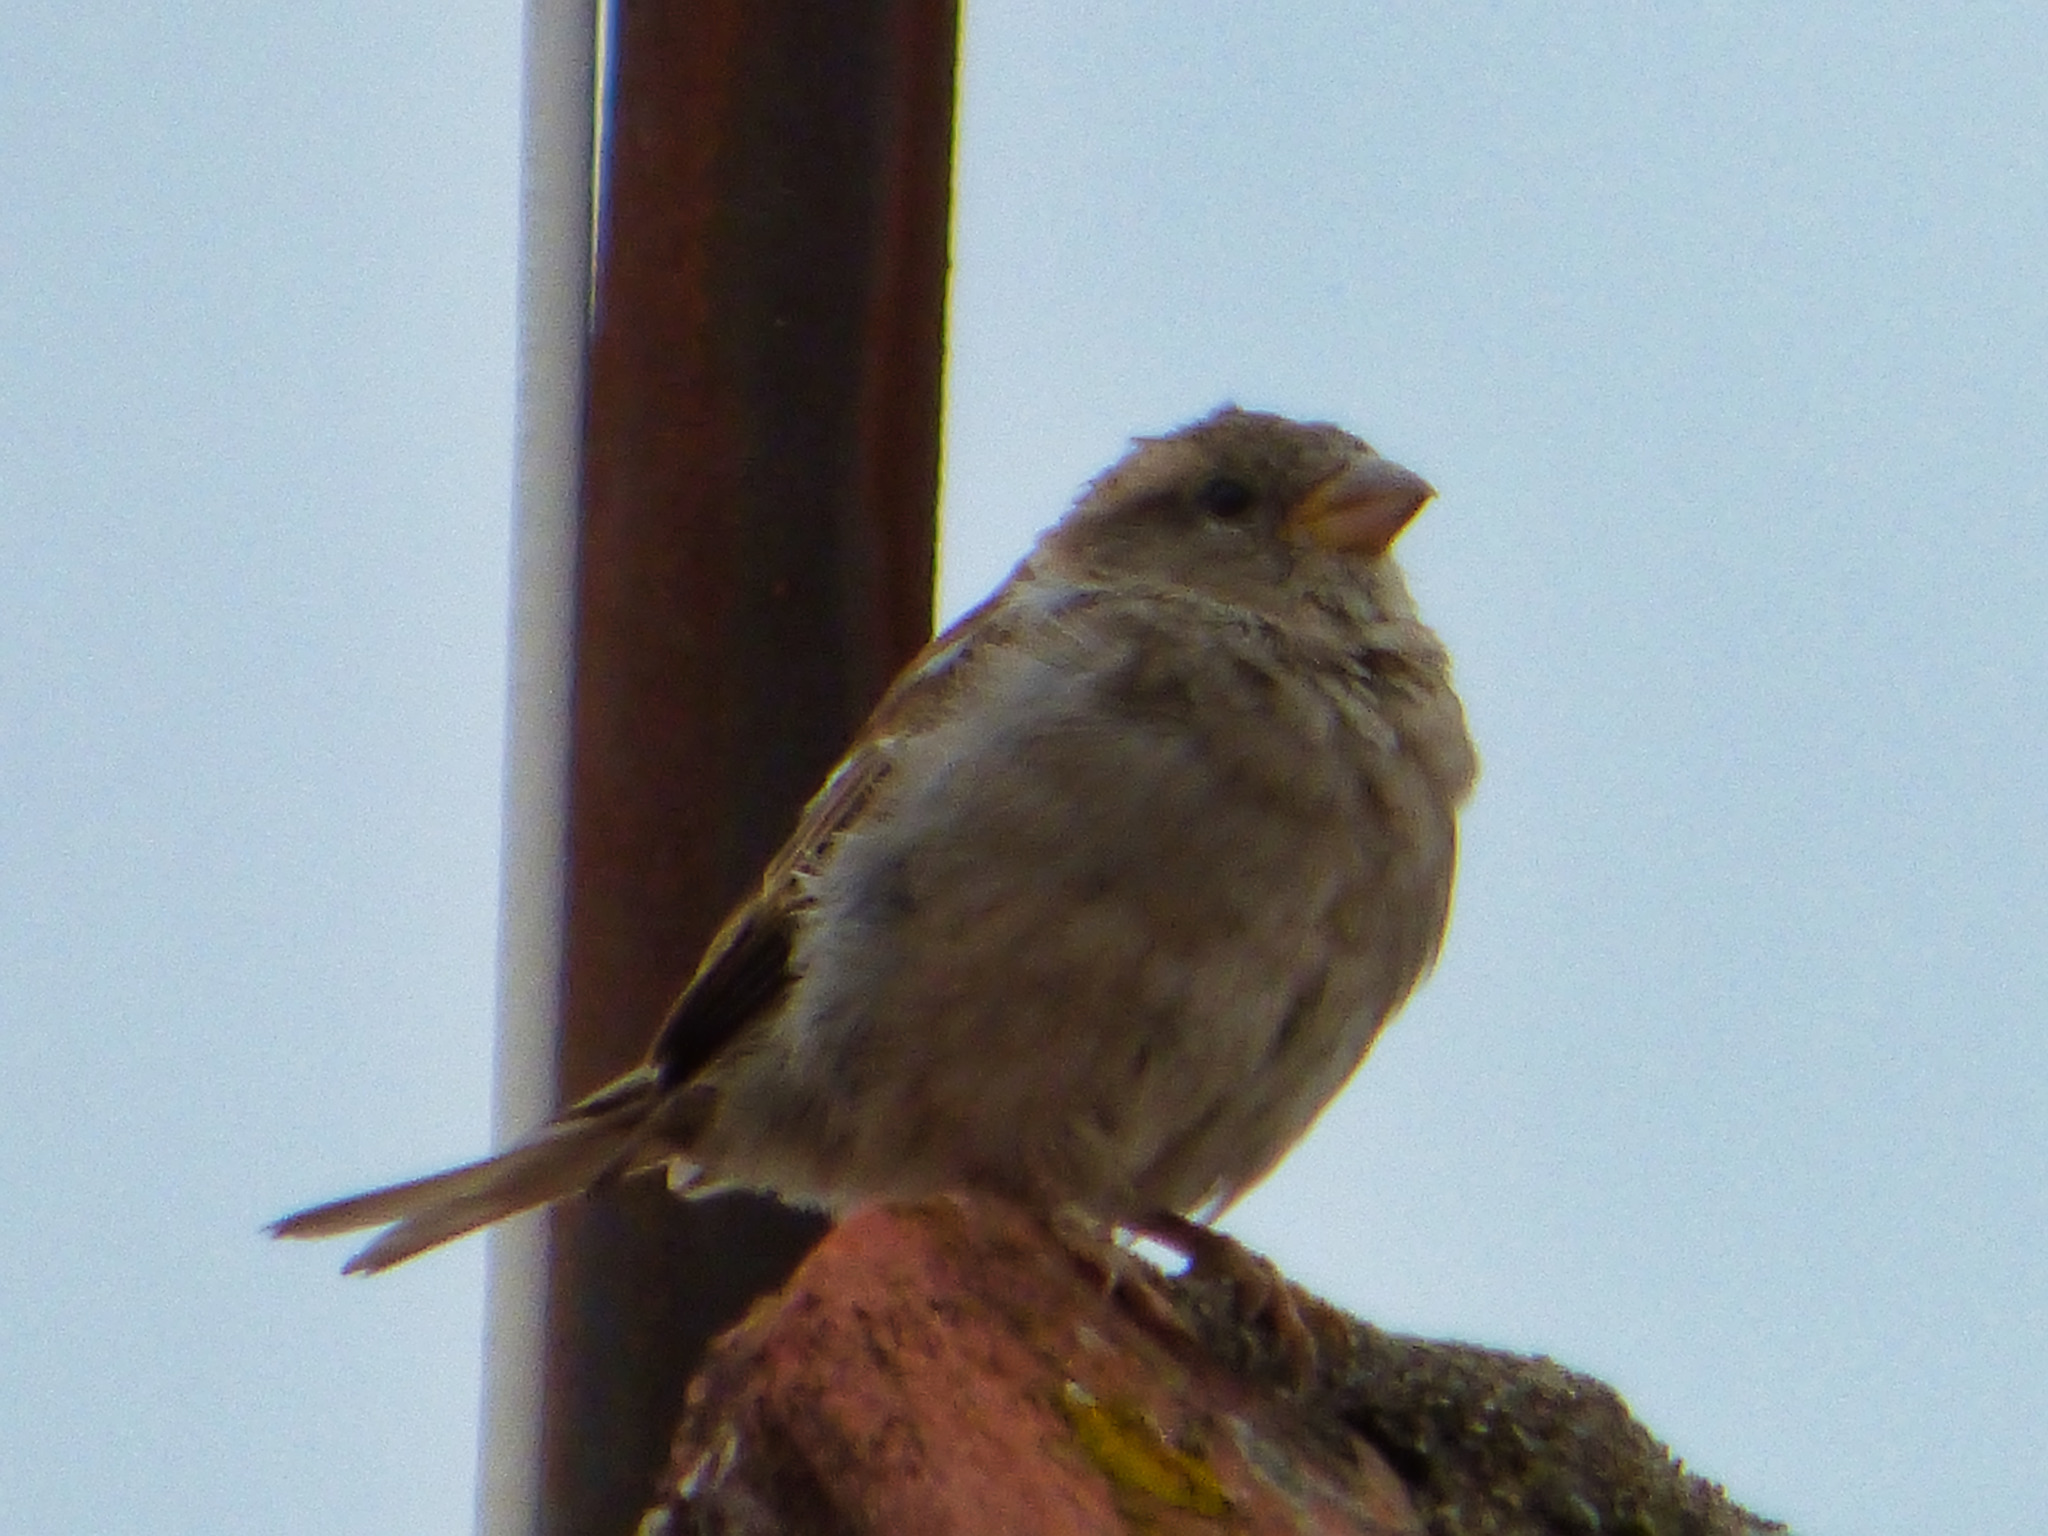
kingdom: Animalia
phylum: Chordata
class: Aves
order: Passeriformes
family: Passeridae
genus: Passer
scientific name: Passer domesticus
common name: House sparrow
